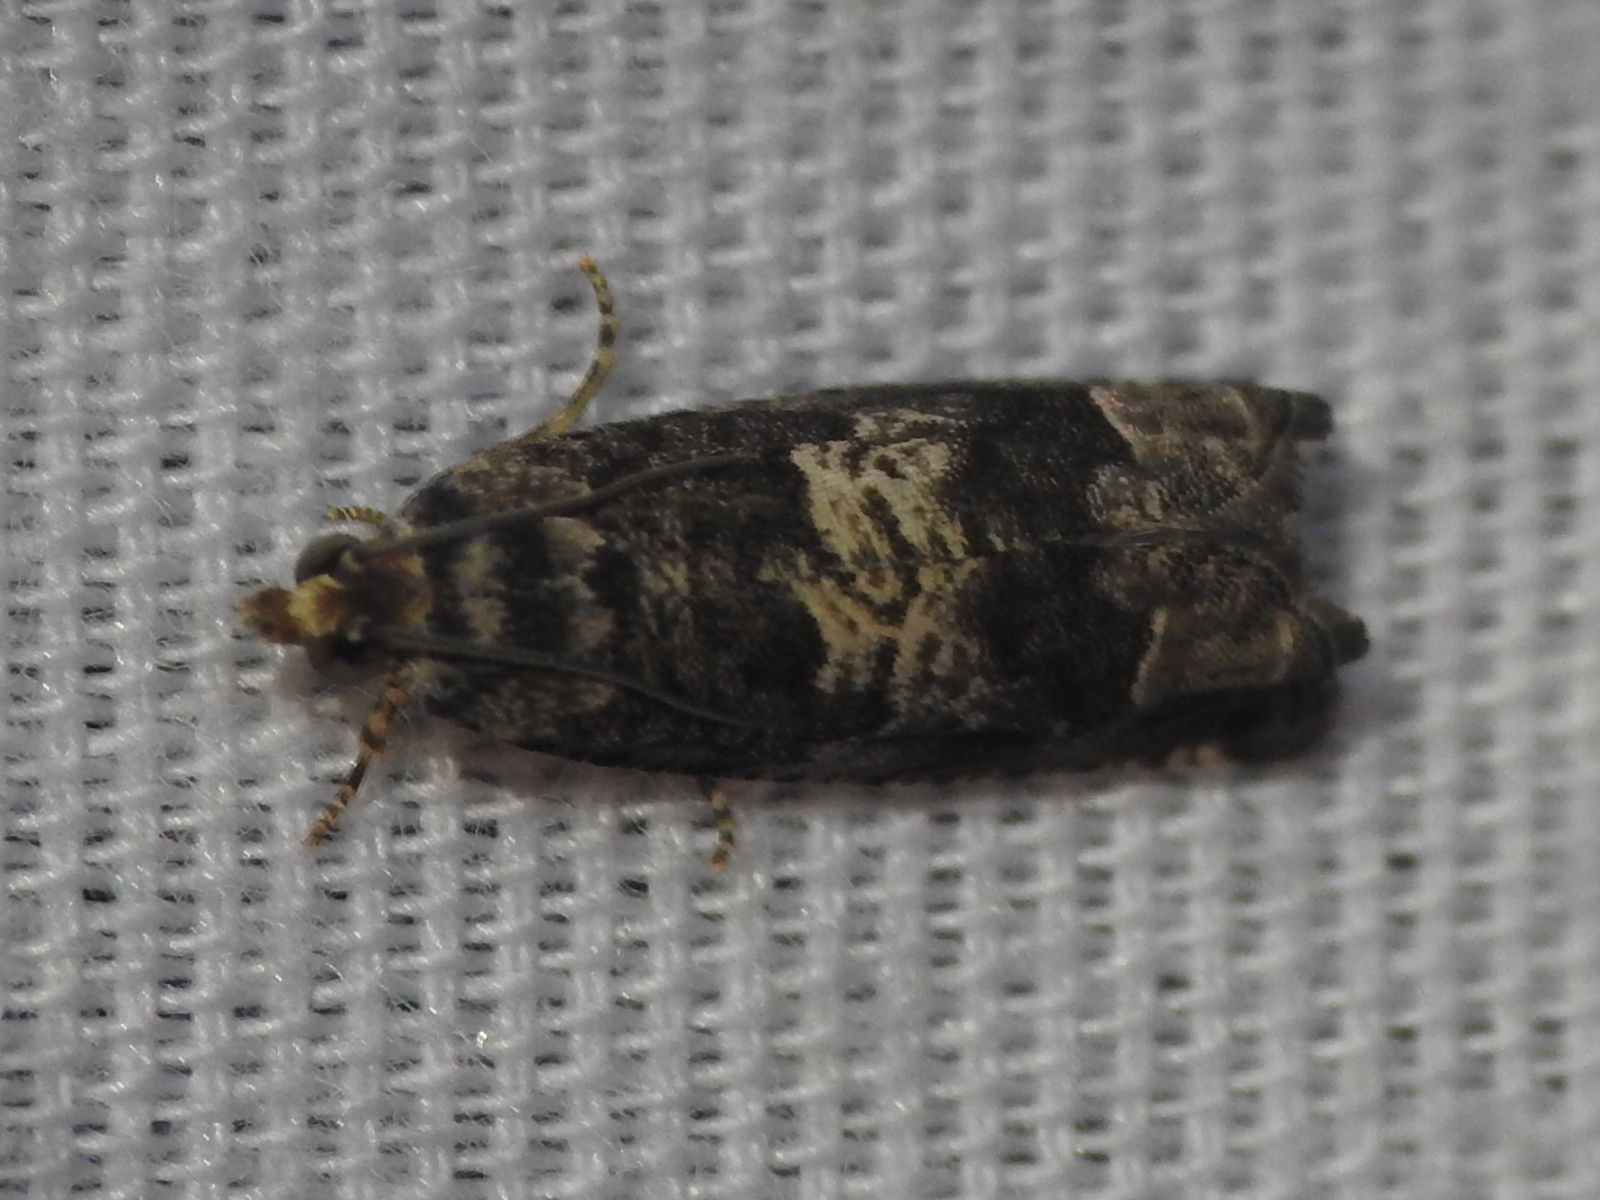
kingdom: Animalia
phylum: Arthropoda
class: Insecta
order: Lepidoptera
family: Tortricidae
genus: Cydia
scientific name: Cydia membrosa
